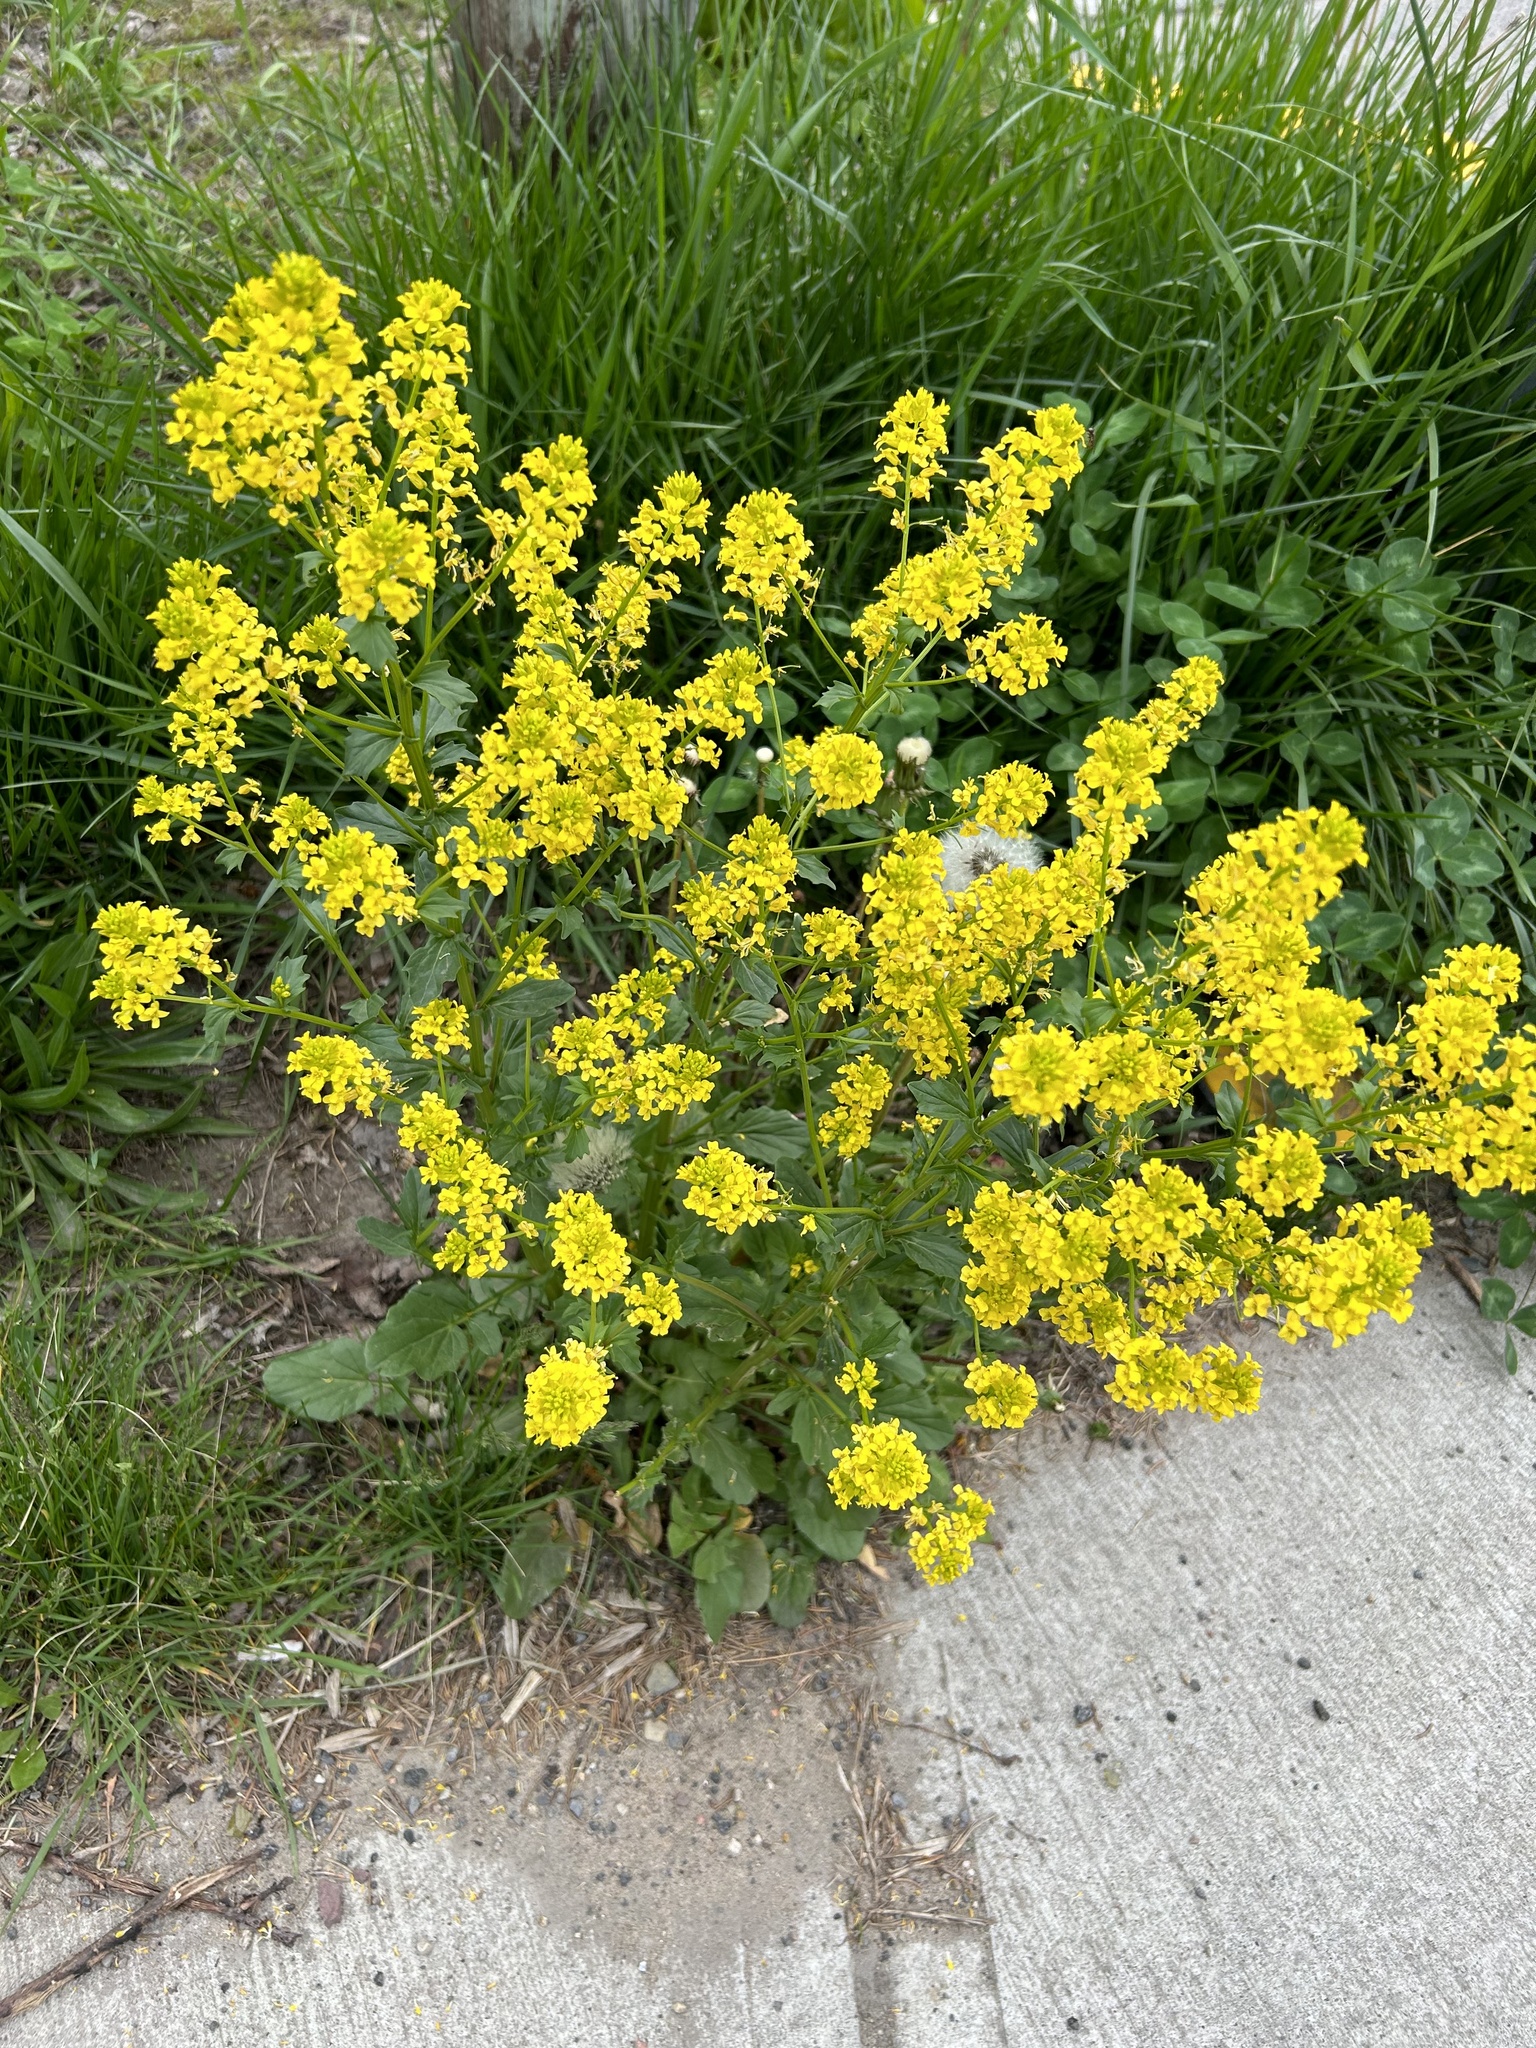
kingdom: Plantae
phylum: Tracheophyta
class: Magnoliopsida
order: Brassicales
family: Brassicaceae
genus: Barbarea
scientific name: Barbarea vulgaris
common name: Cressy-greens
